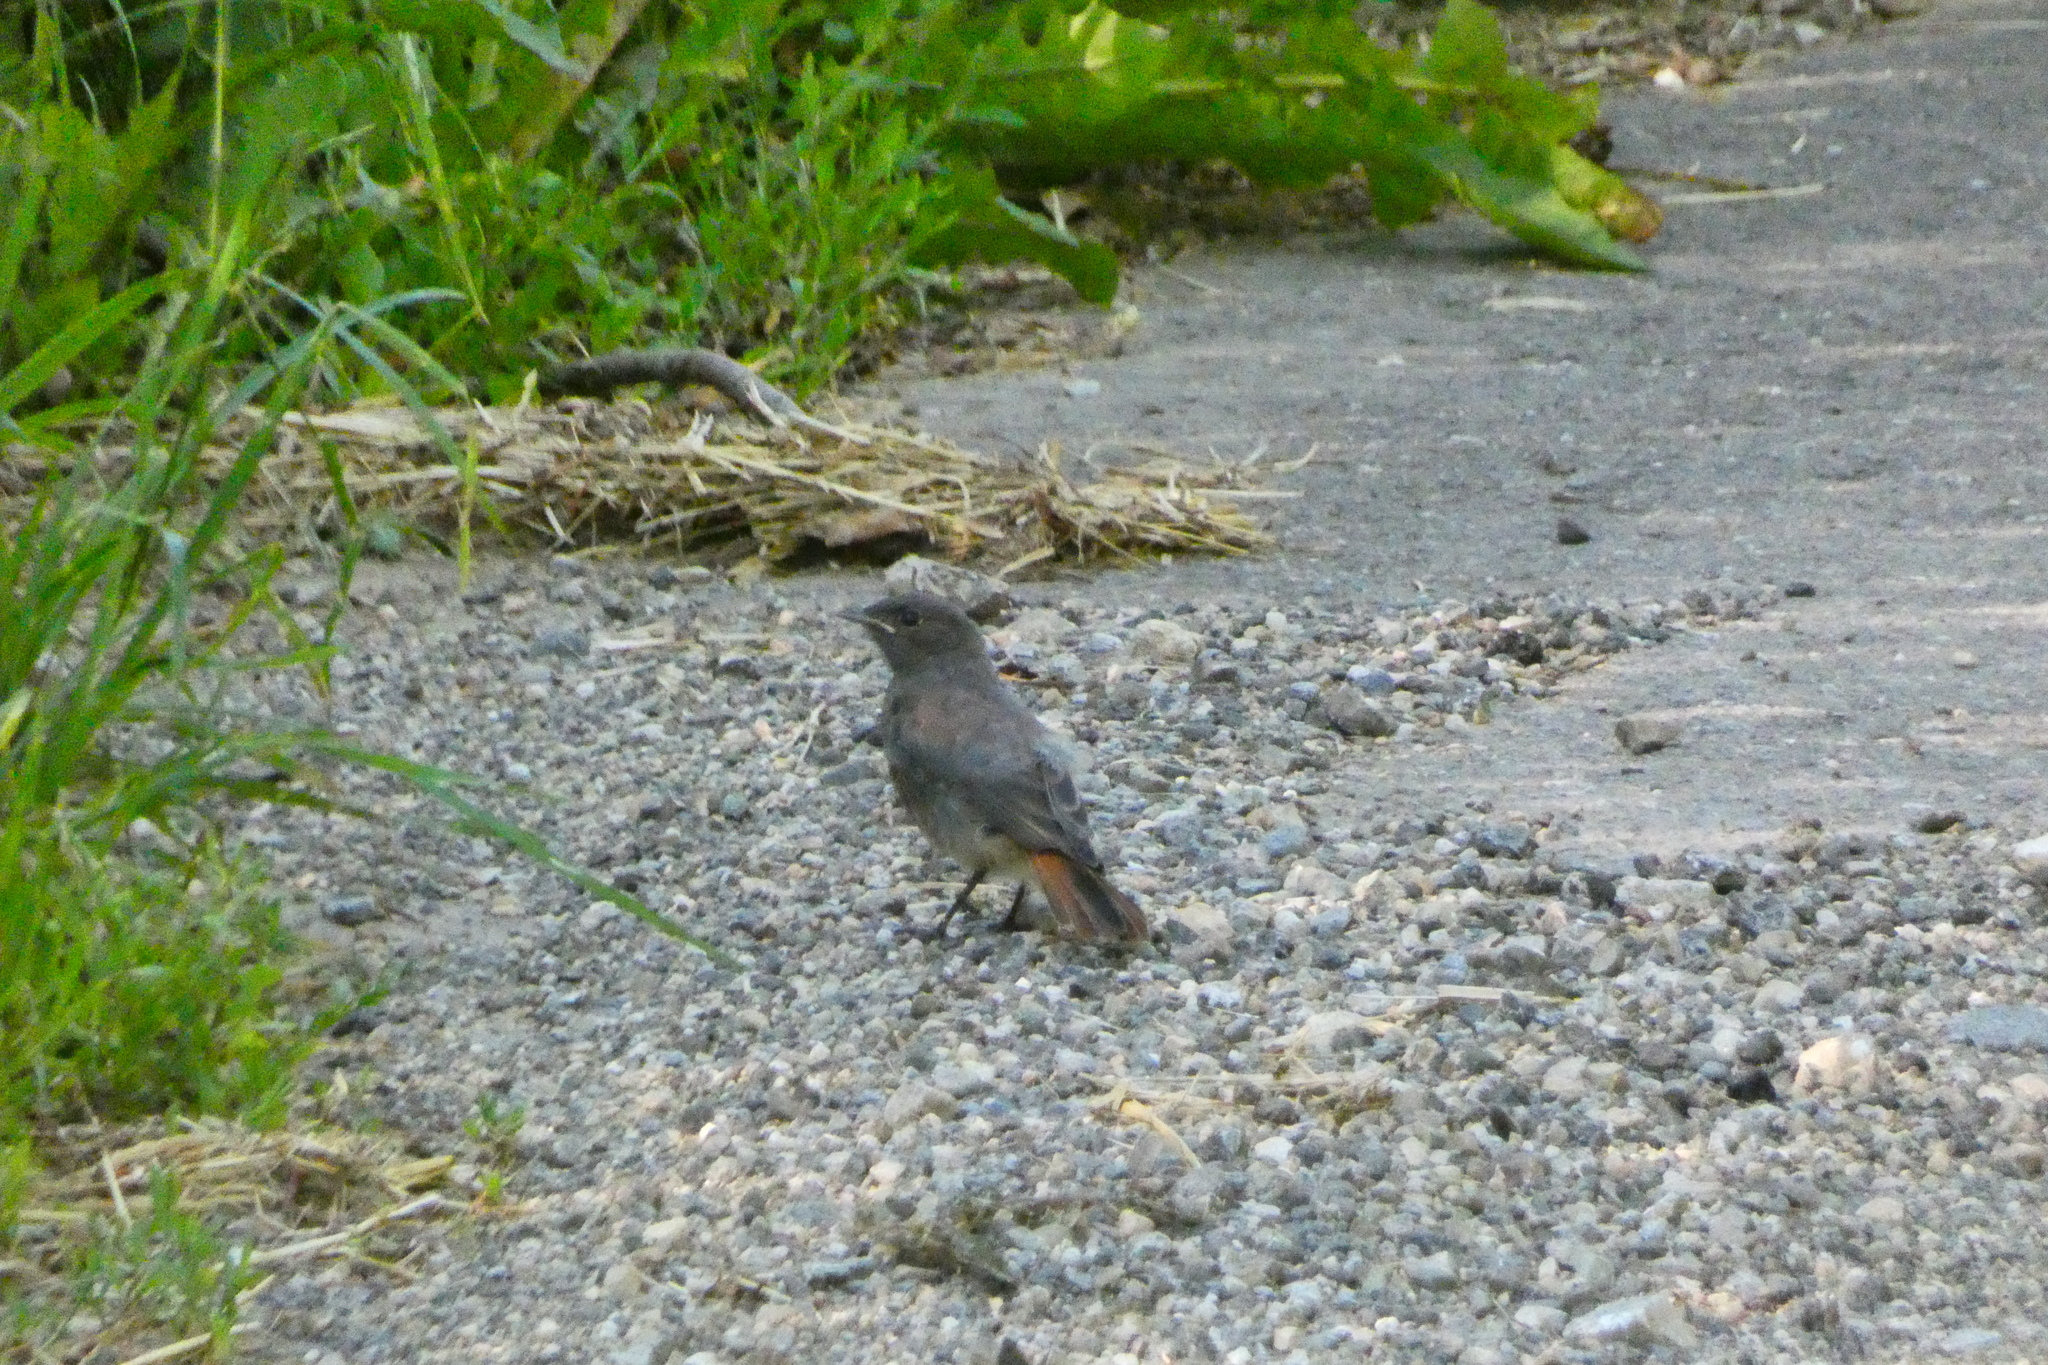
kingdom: Animalia
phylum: Chordata
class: Aves
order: Passeriformes
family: Muscicapidae
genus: Phoenicurus
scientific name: Phoenicurus ochruros
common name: Black redstart
